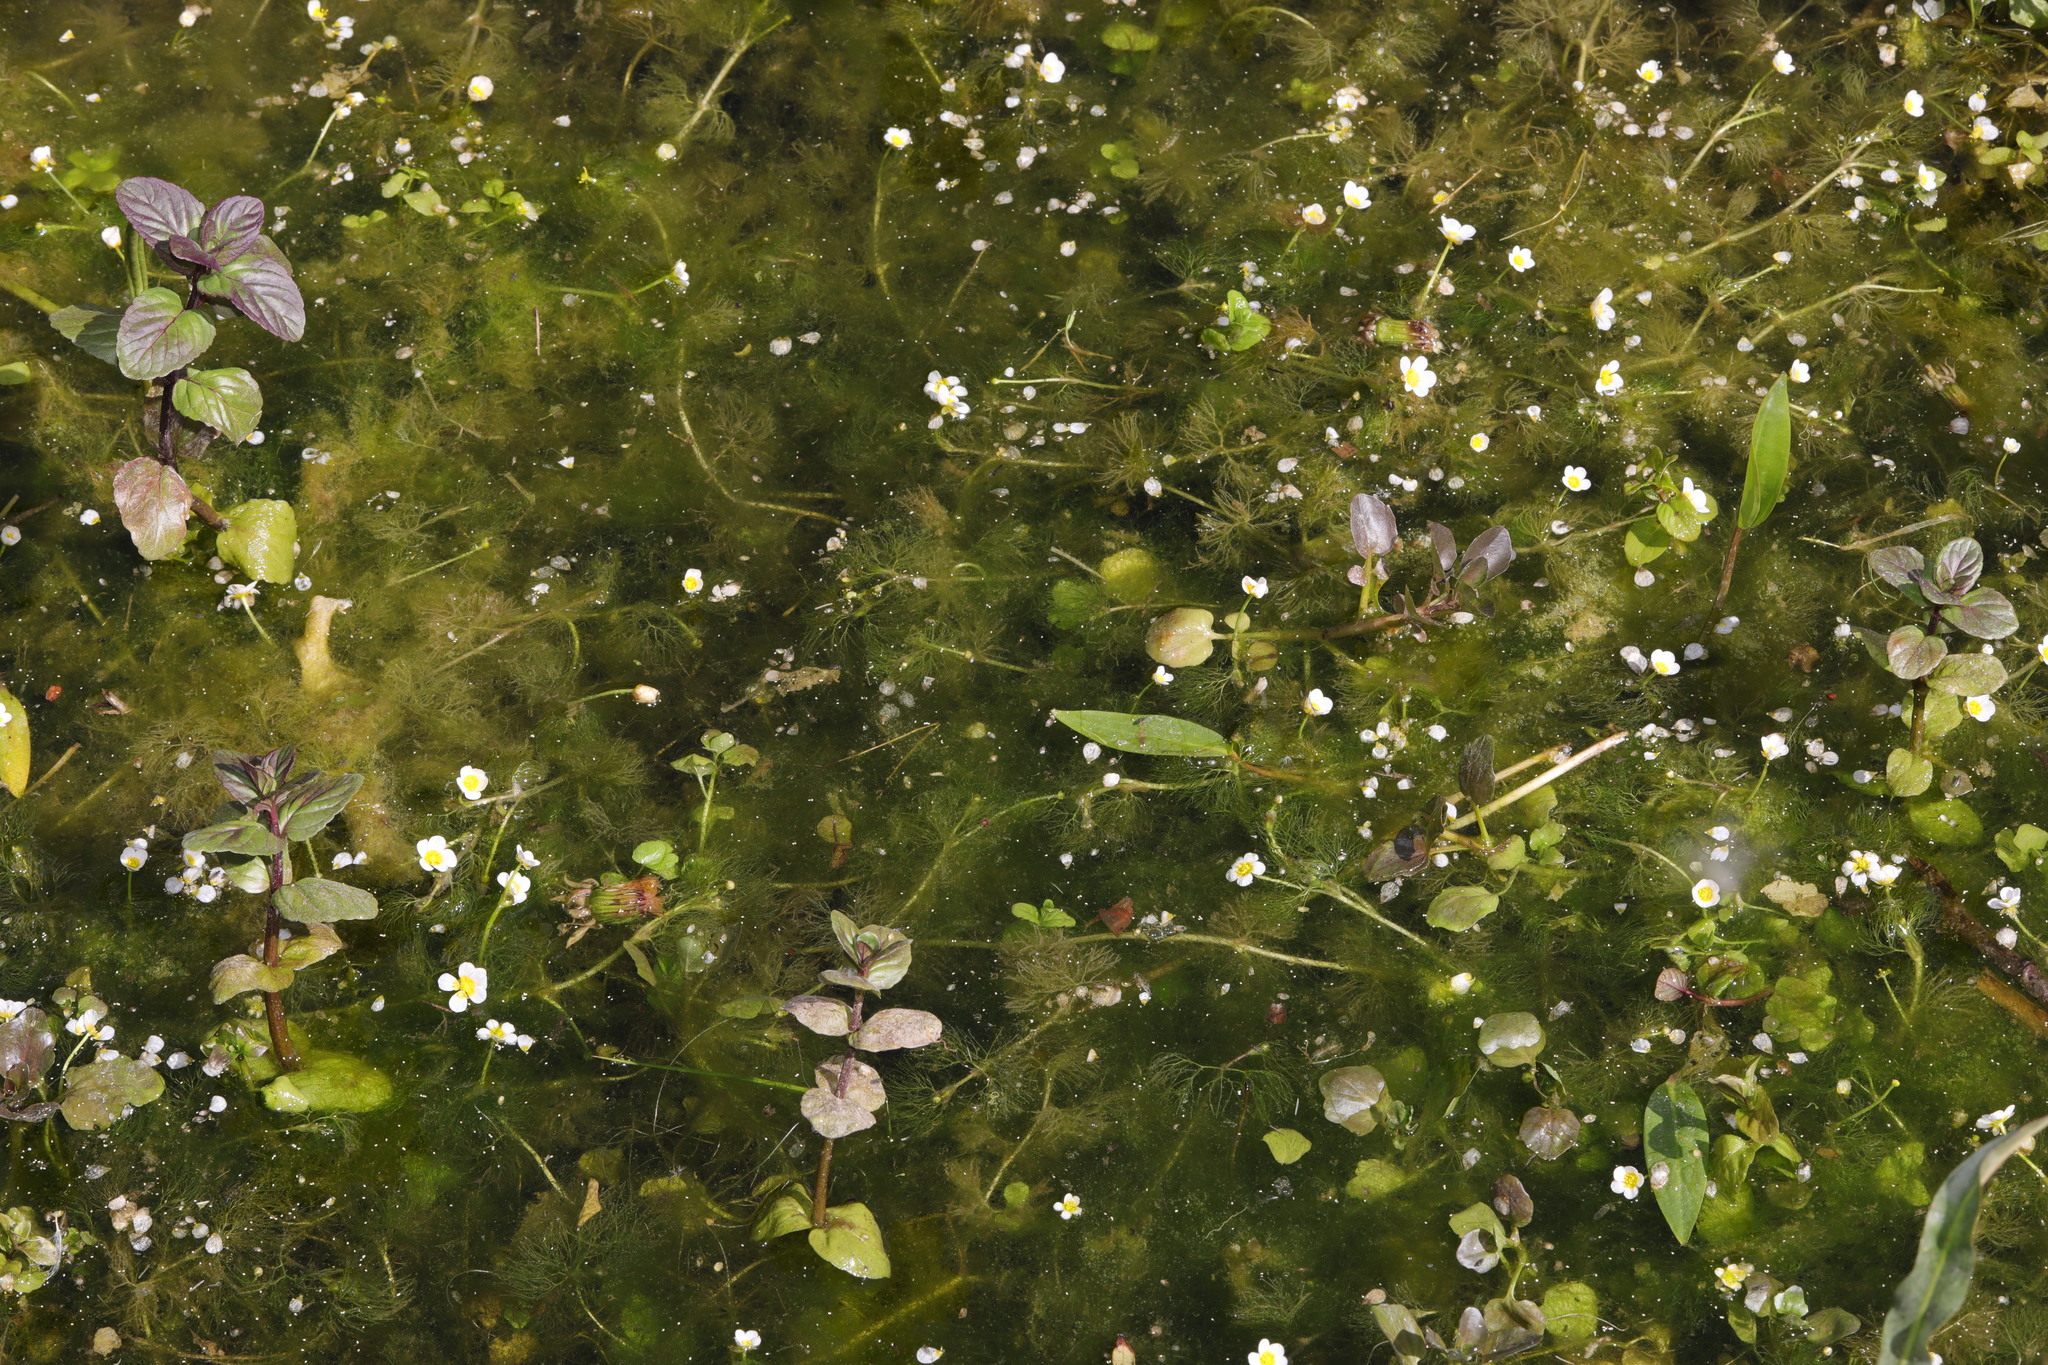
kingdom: Plantae
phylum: Tracheophyta
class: Magnoliopsida
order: Ranunculales
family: Ranunculaceae
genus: Ranunculus
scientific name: Ranunculus aquatilis
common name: Common water-crowfoot
